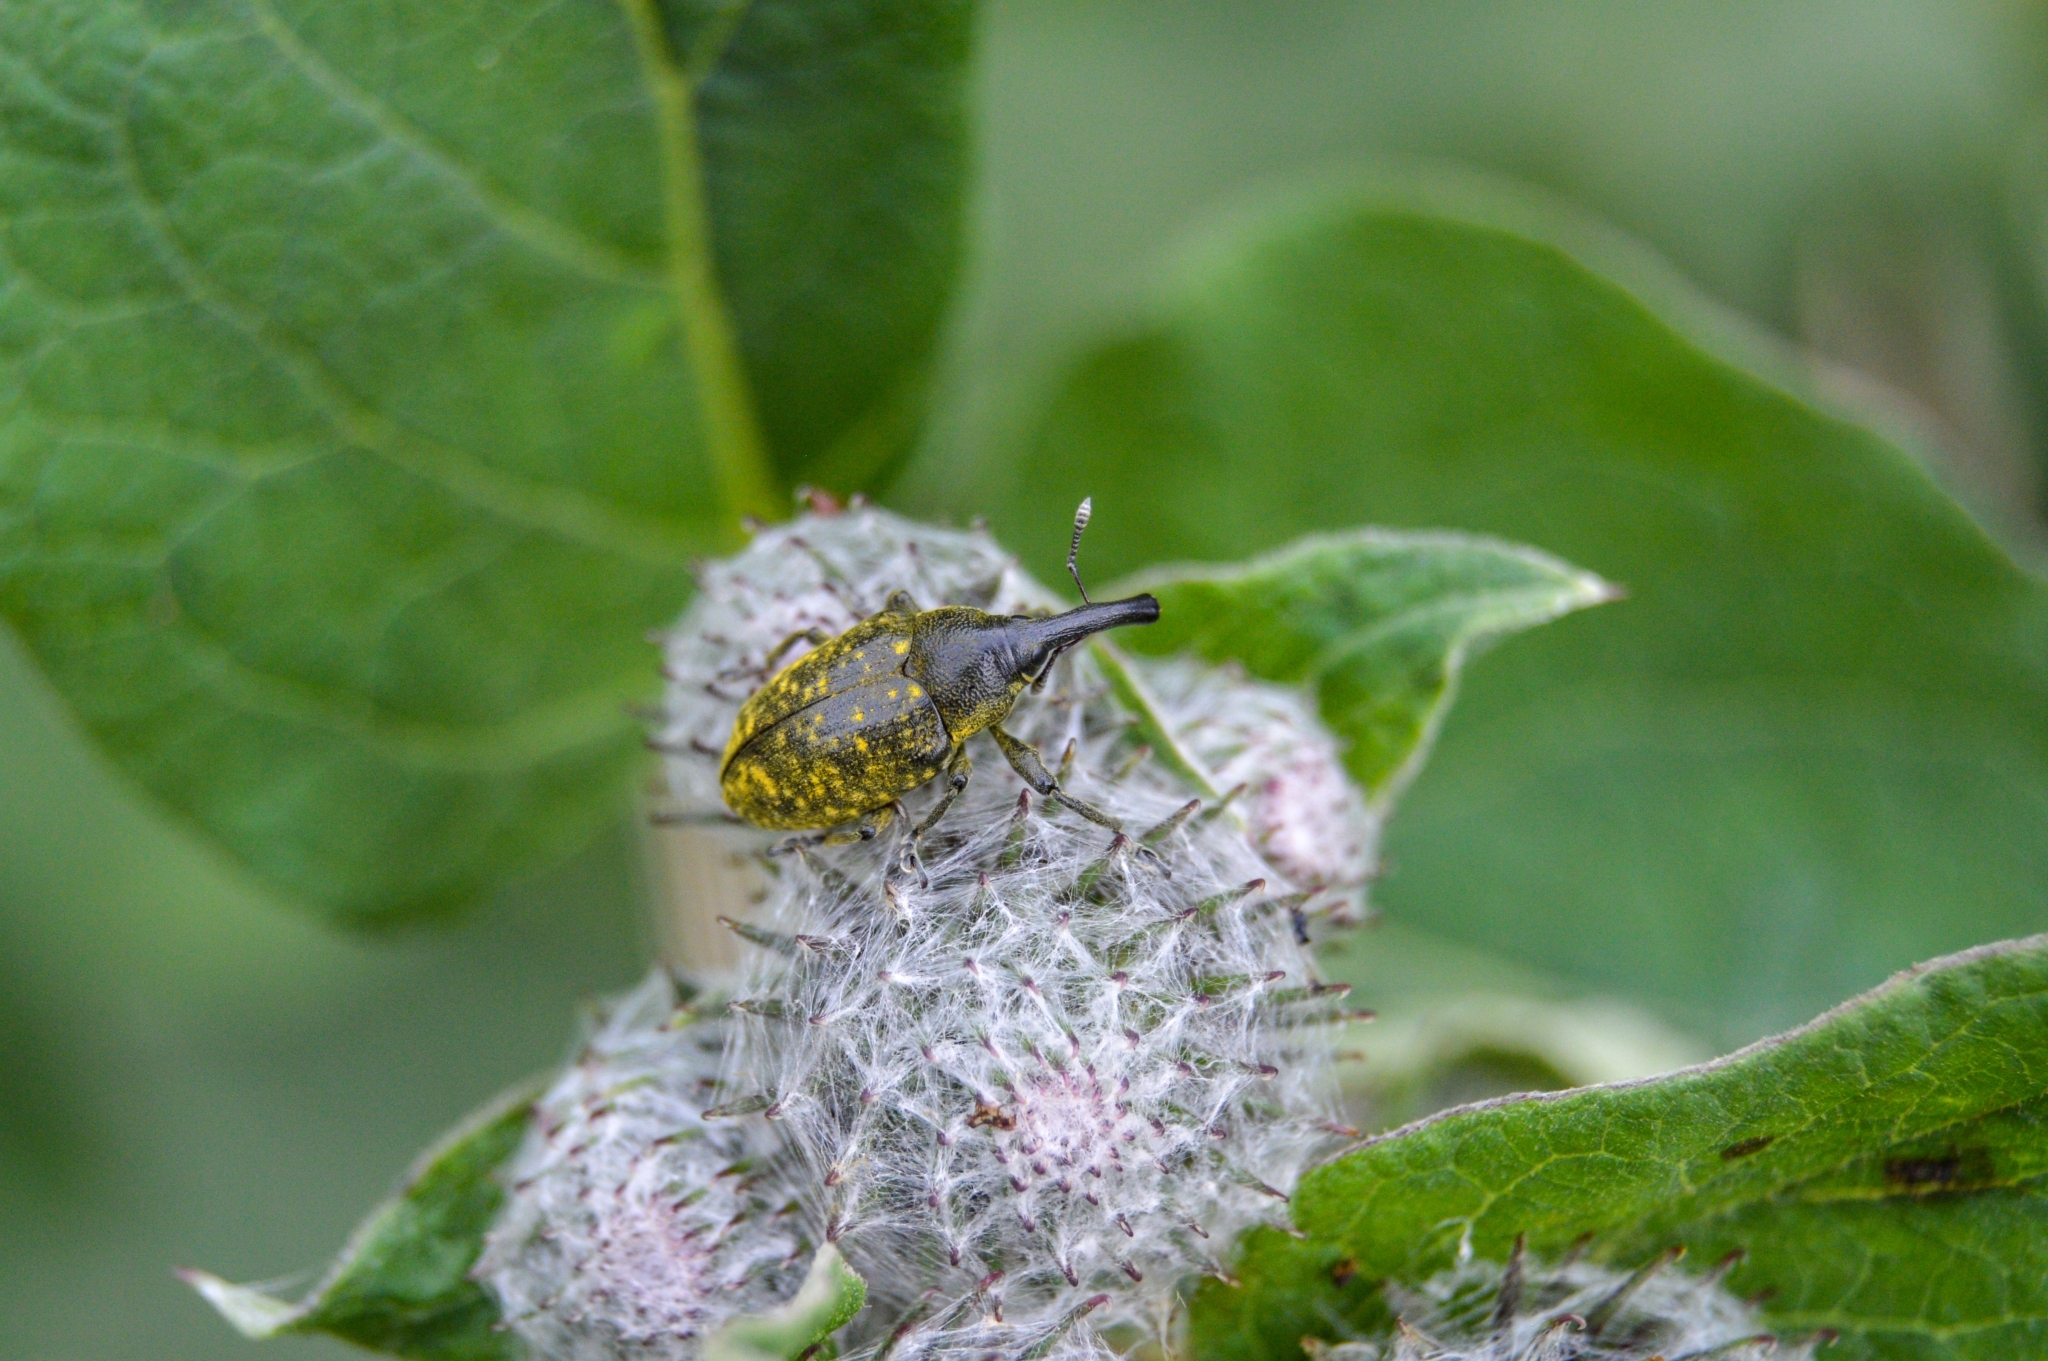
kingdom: Animalia
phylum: Arthropoda
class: Insecta
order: Coleoptera
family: Curculionidae
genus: Larinus
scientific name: Larinus sturnus
